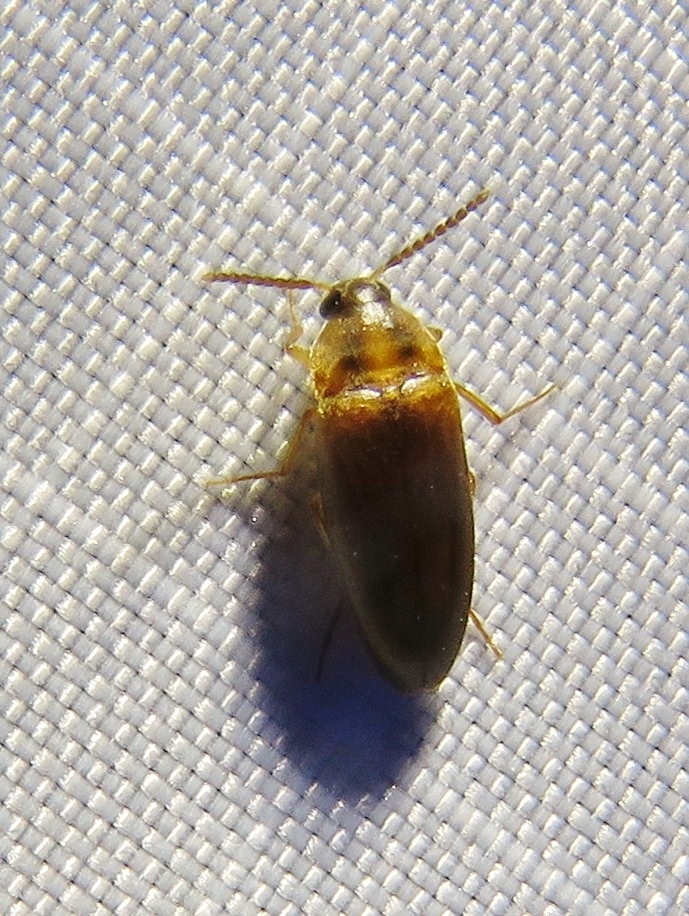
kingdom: Animalia
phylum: Arthropoda
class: Insecta
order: Coleoptera
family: Tetratomidae
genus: Hallomenus
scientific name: Hallomenus binotatus
